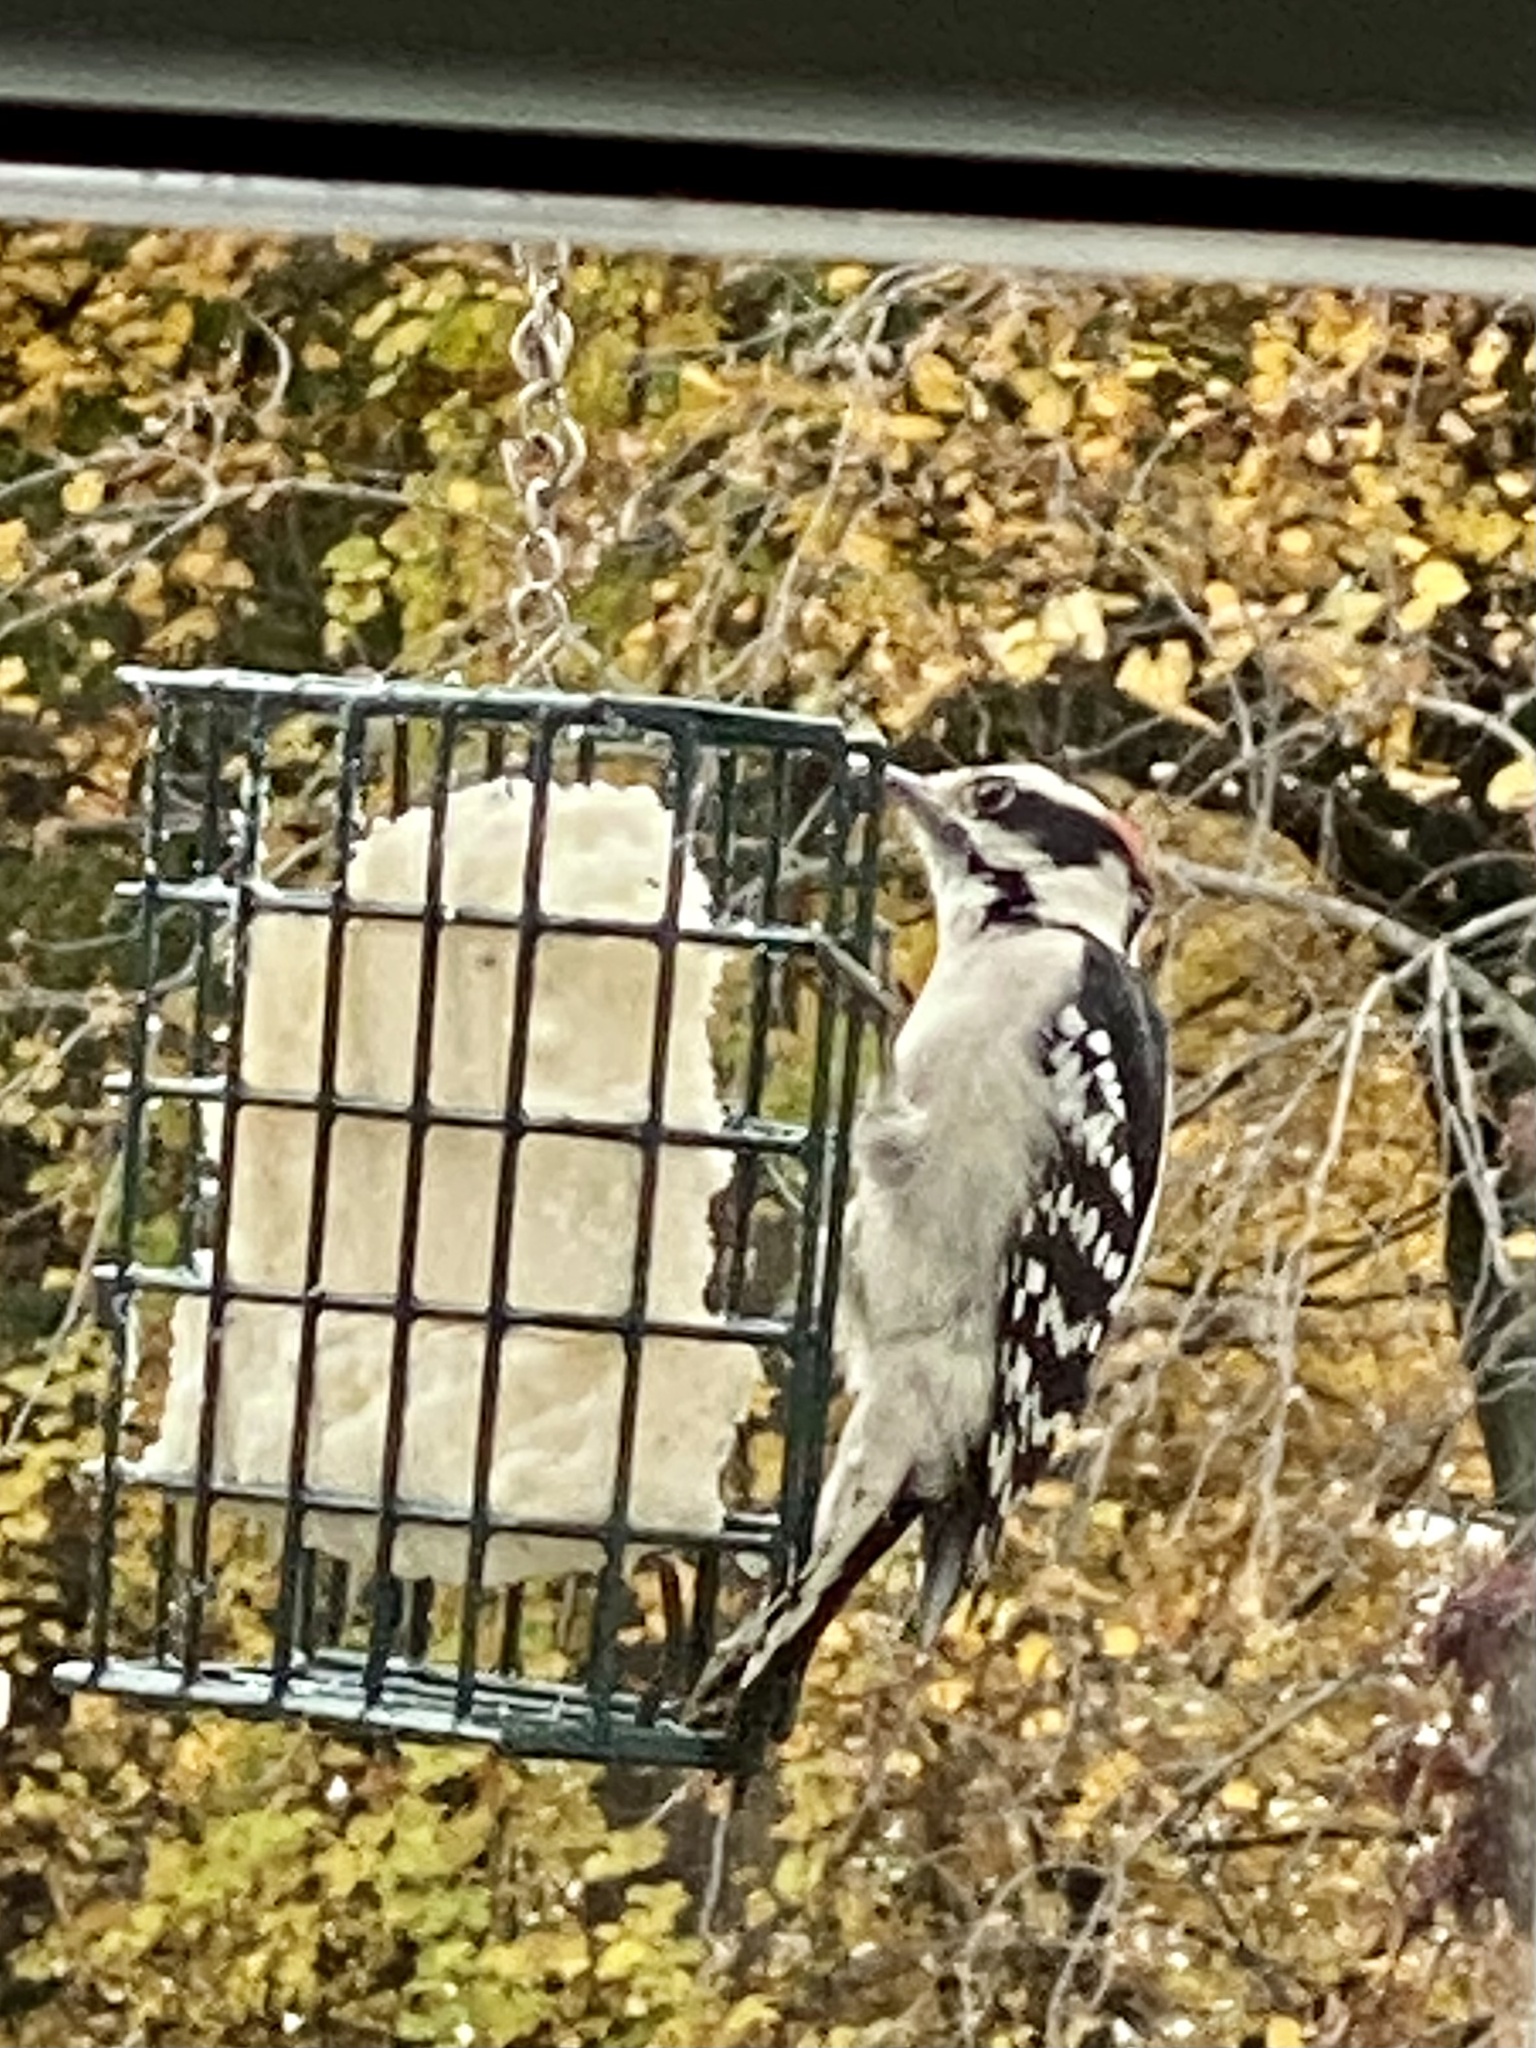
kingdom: Animalia
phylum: Chordata
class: Aves
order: Piciformes
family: Picidae
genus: Dryobates
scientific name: Dryobates pubescens
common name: Downy woodpecker
